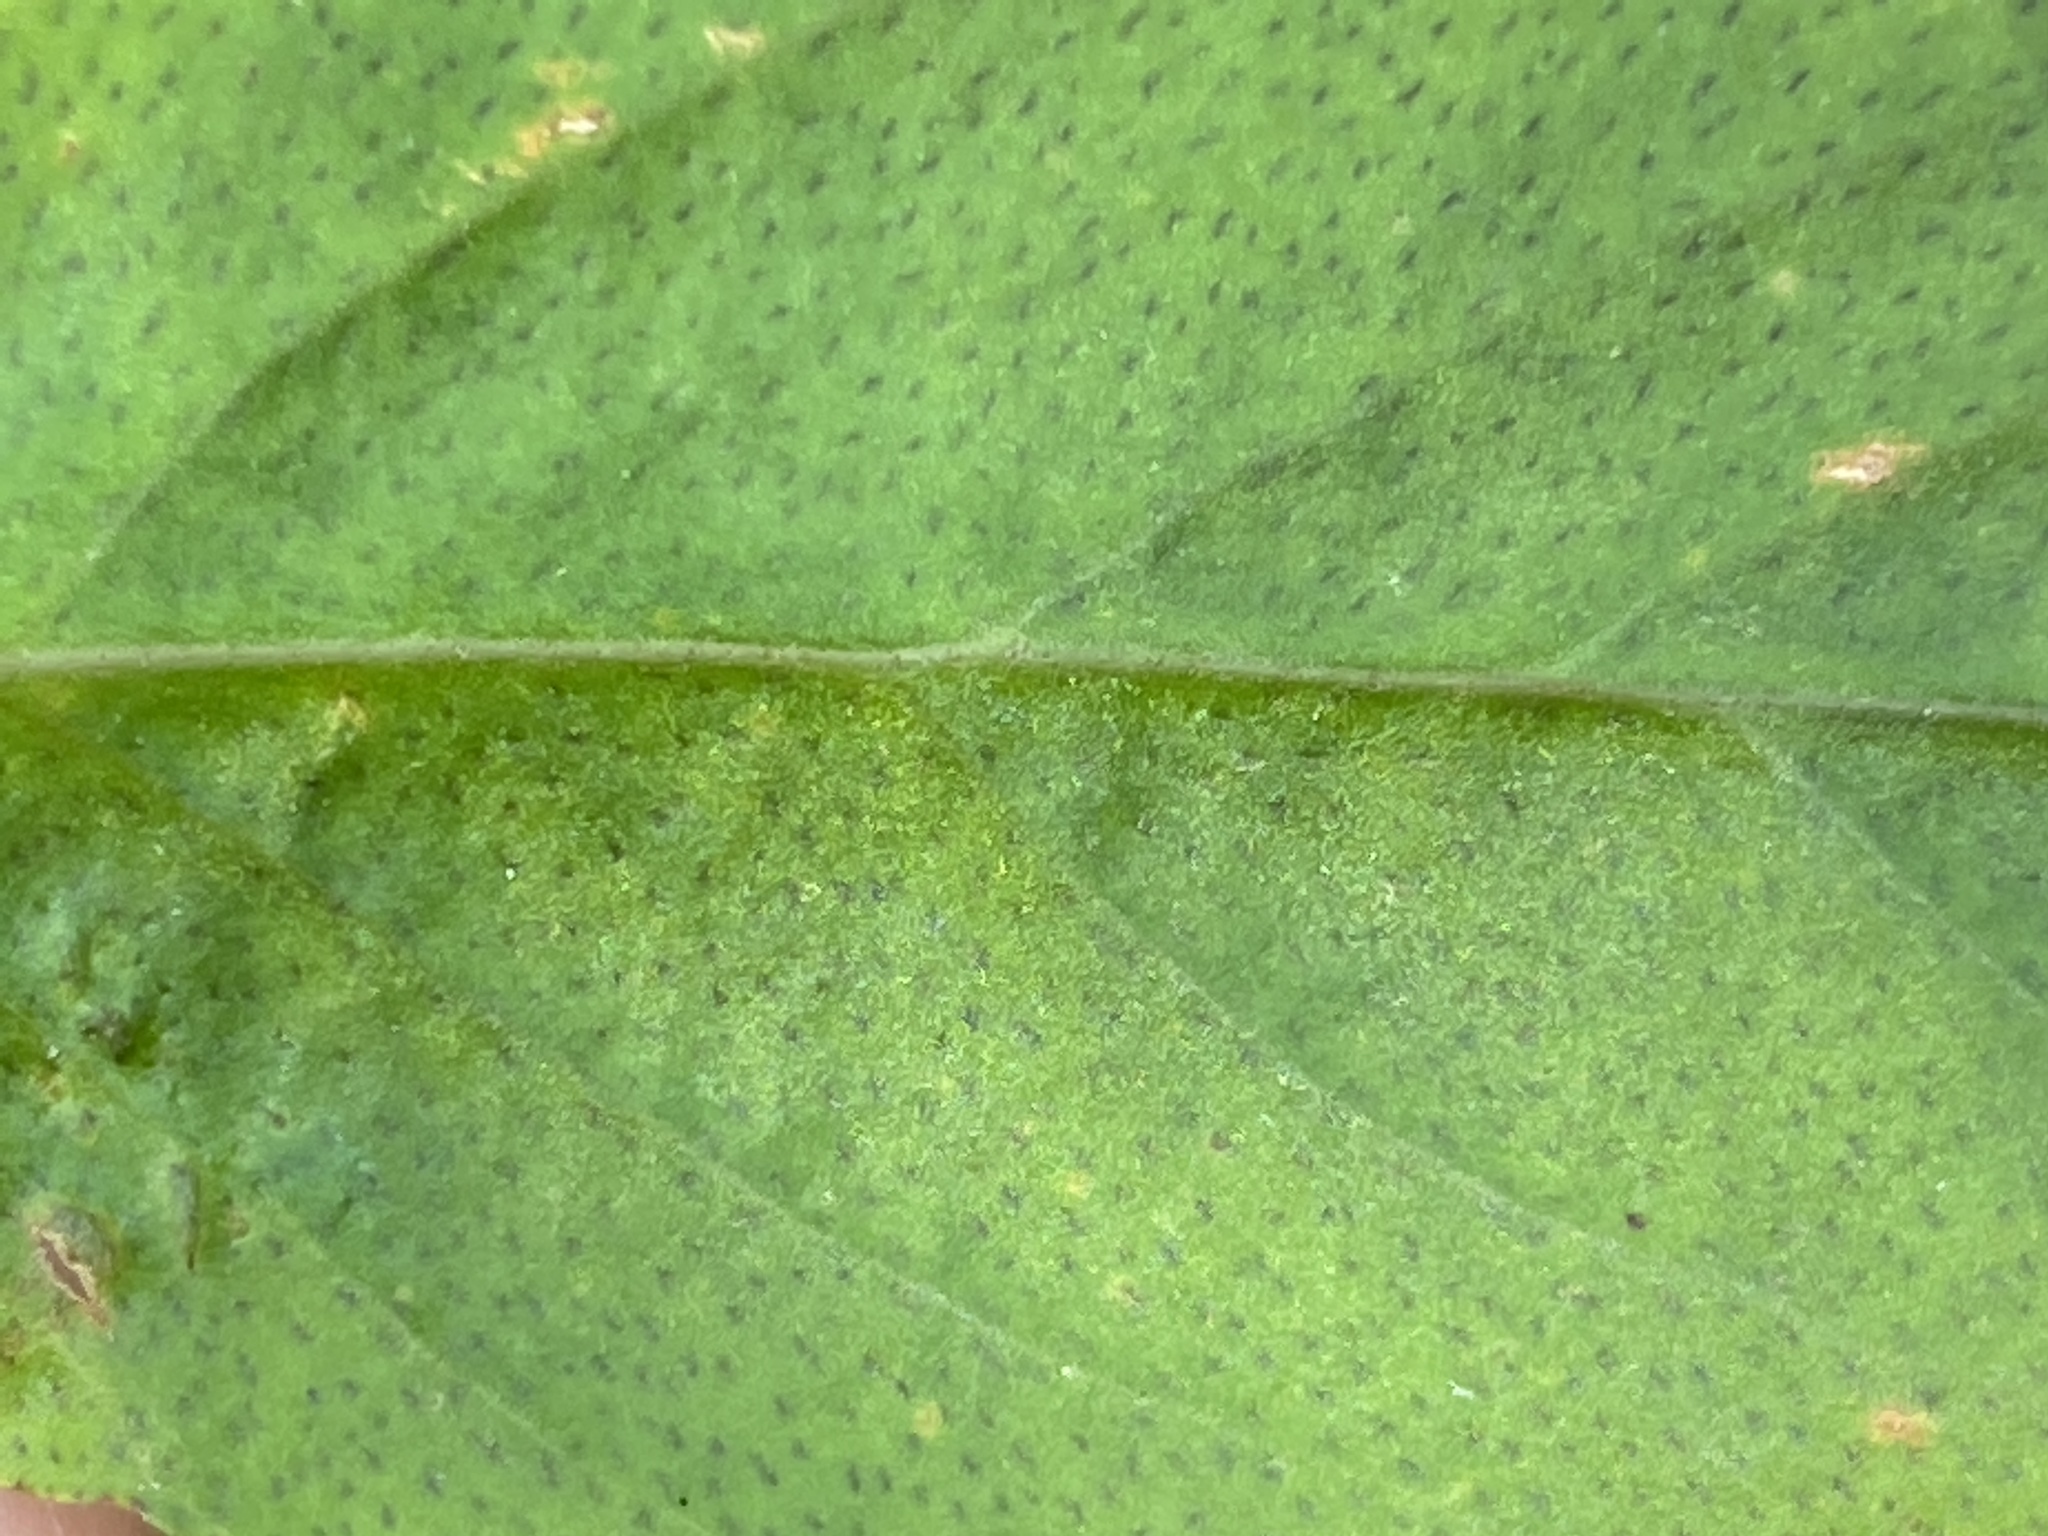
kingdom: Plantae
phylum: Tracheophyta
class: Magnoliopsida
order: Ericales
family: Primulaceae
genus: Lysimachia
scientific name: Lysimachia quadrifolia
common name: Whorled loosestrife
